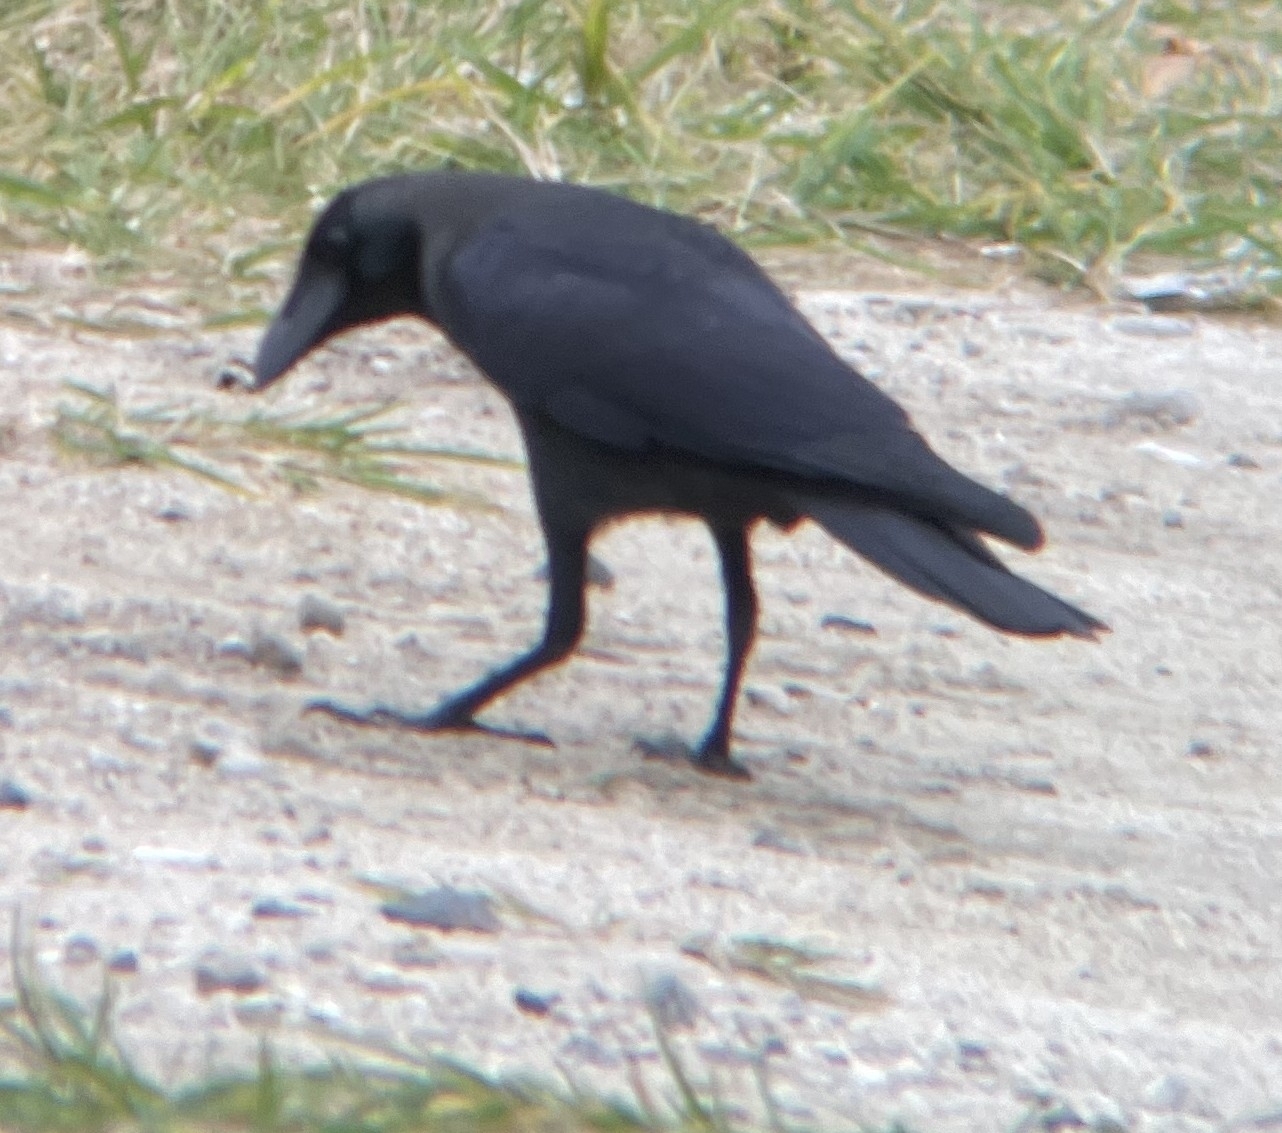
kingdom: Animalia
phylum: Chordata
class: Aves
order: Passeriformes
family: Corvidae
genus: Corvus
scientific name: Corvus splendens
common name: House crow
